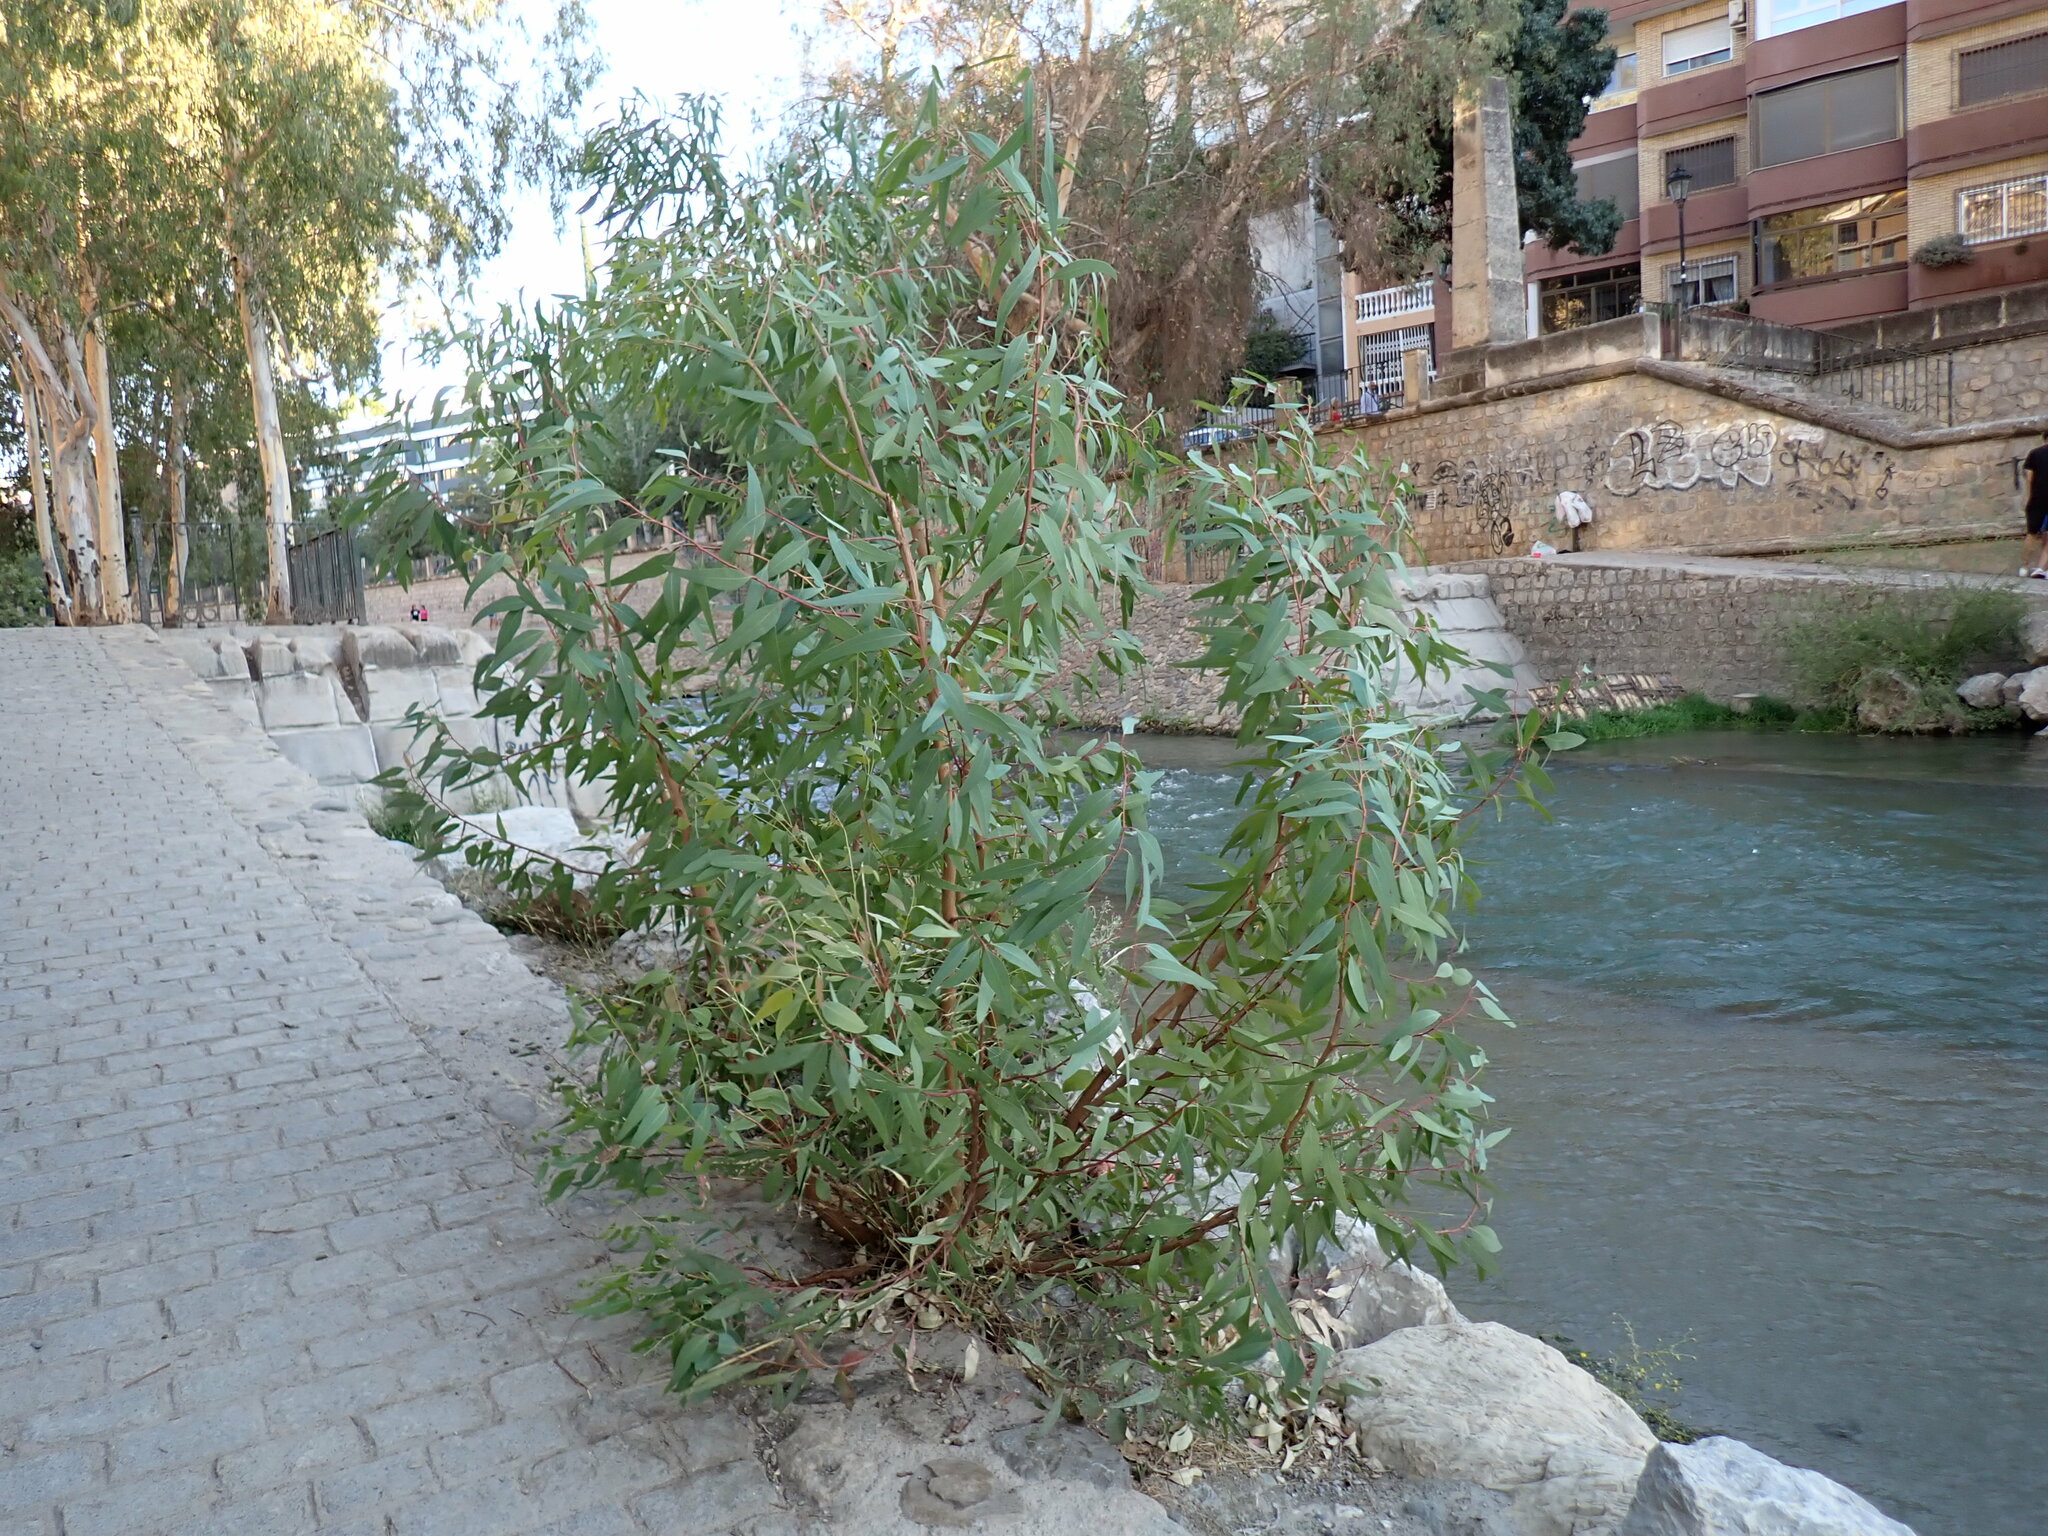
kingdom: Plantae
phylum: Tracheophyta
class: Magnoliopsida
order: Myrtales
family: Myrtaceae
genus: Eucalyptus
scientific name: Eucalyptus camaldulensis
